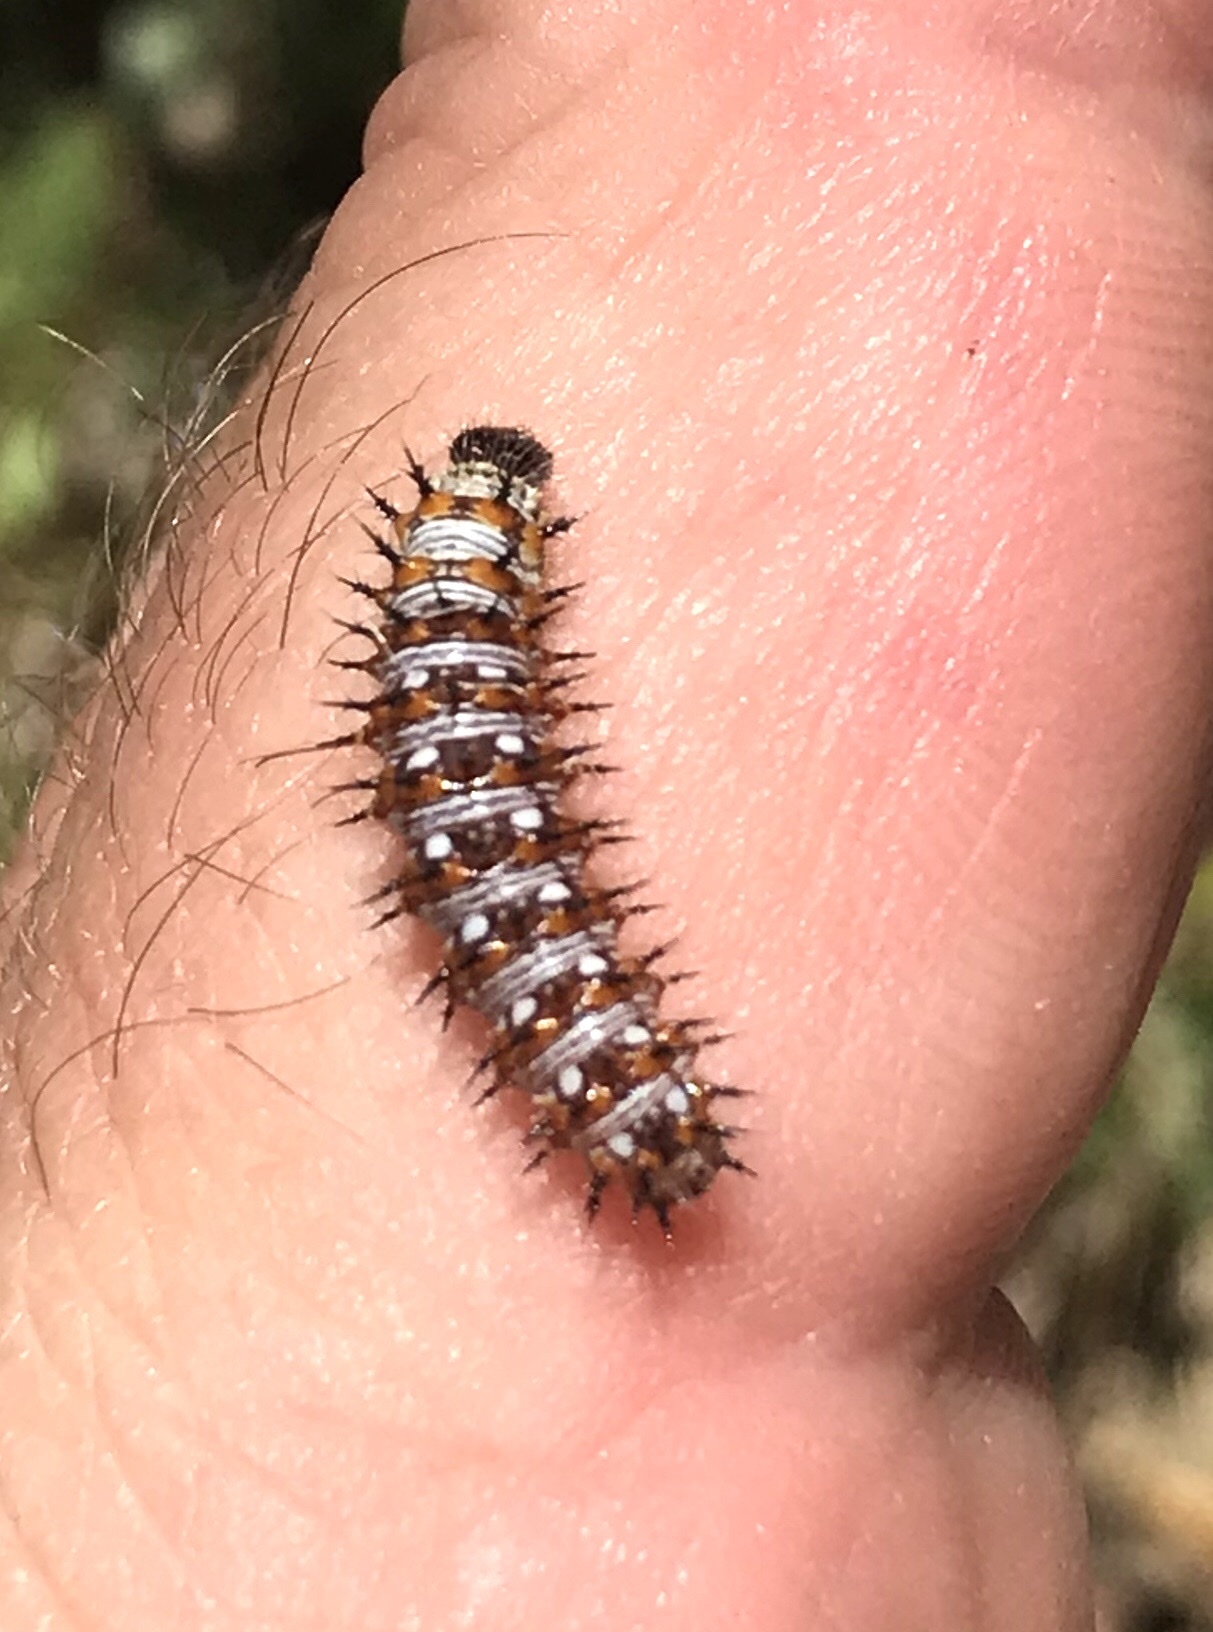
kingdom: Animalia
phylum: Arthropoda
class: Insecta
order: Lepidoptera
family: Nymphalidae
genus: Vanessa
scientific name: Vanessa virginiensis
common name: American lady
